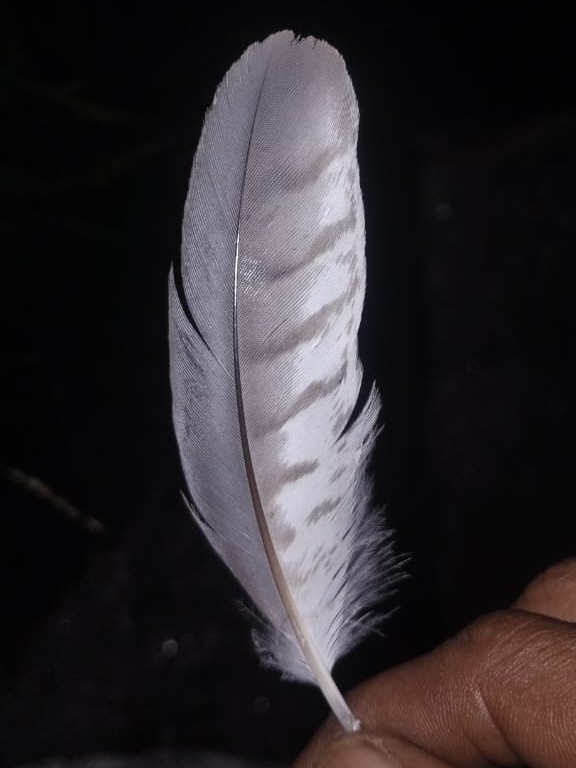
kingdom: Animalia
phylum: Chordata
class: Aves
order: Accipitriformes
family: Accipitridae
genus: Accipiter
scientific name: Accipiter badius
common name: Shikra
